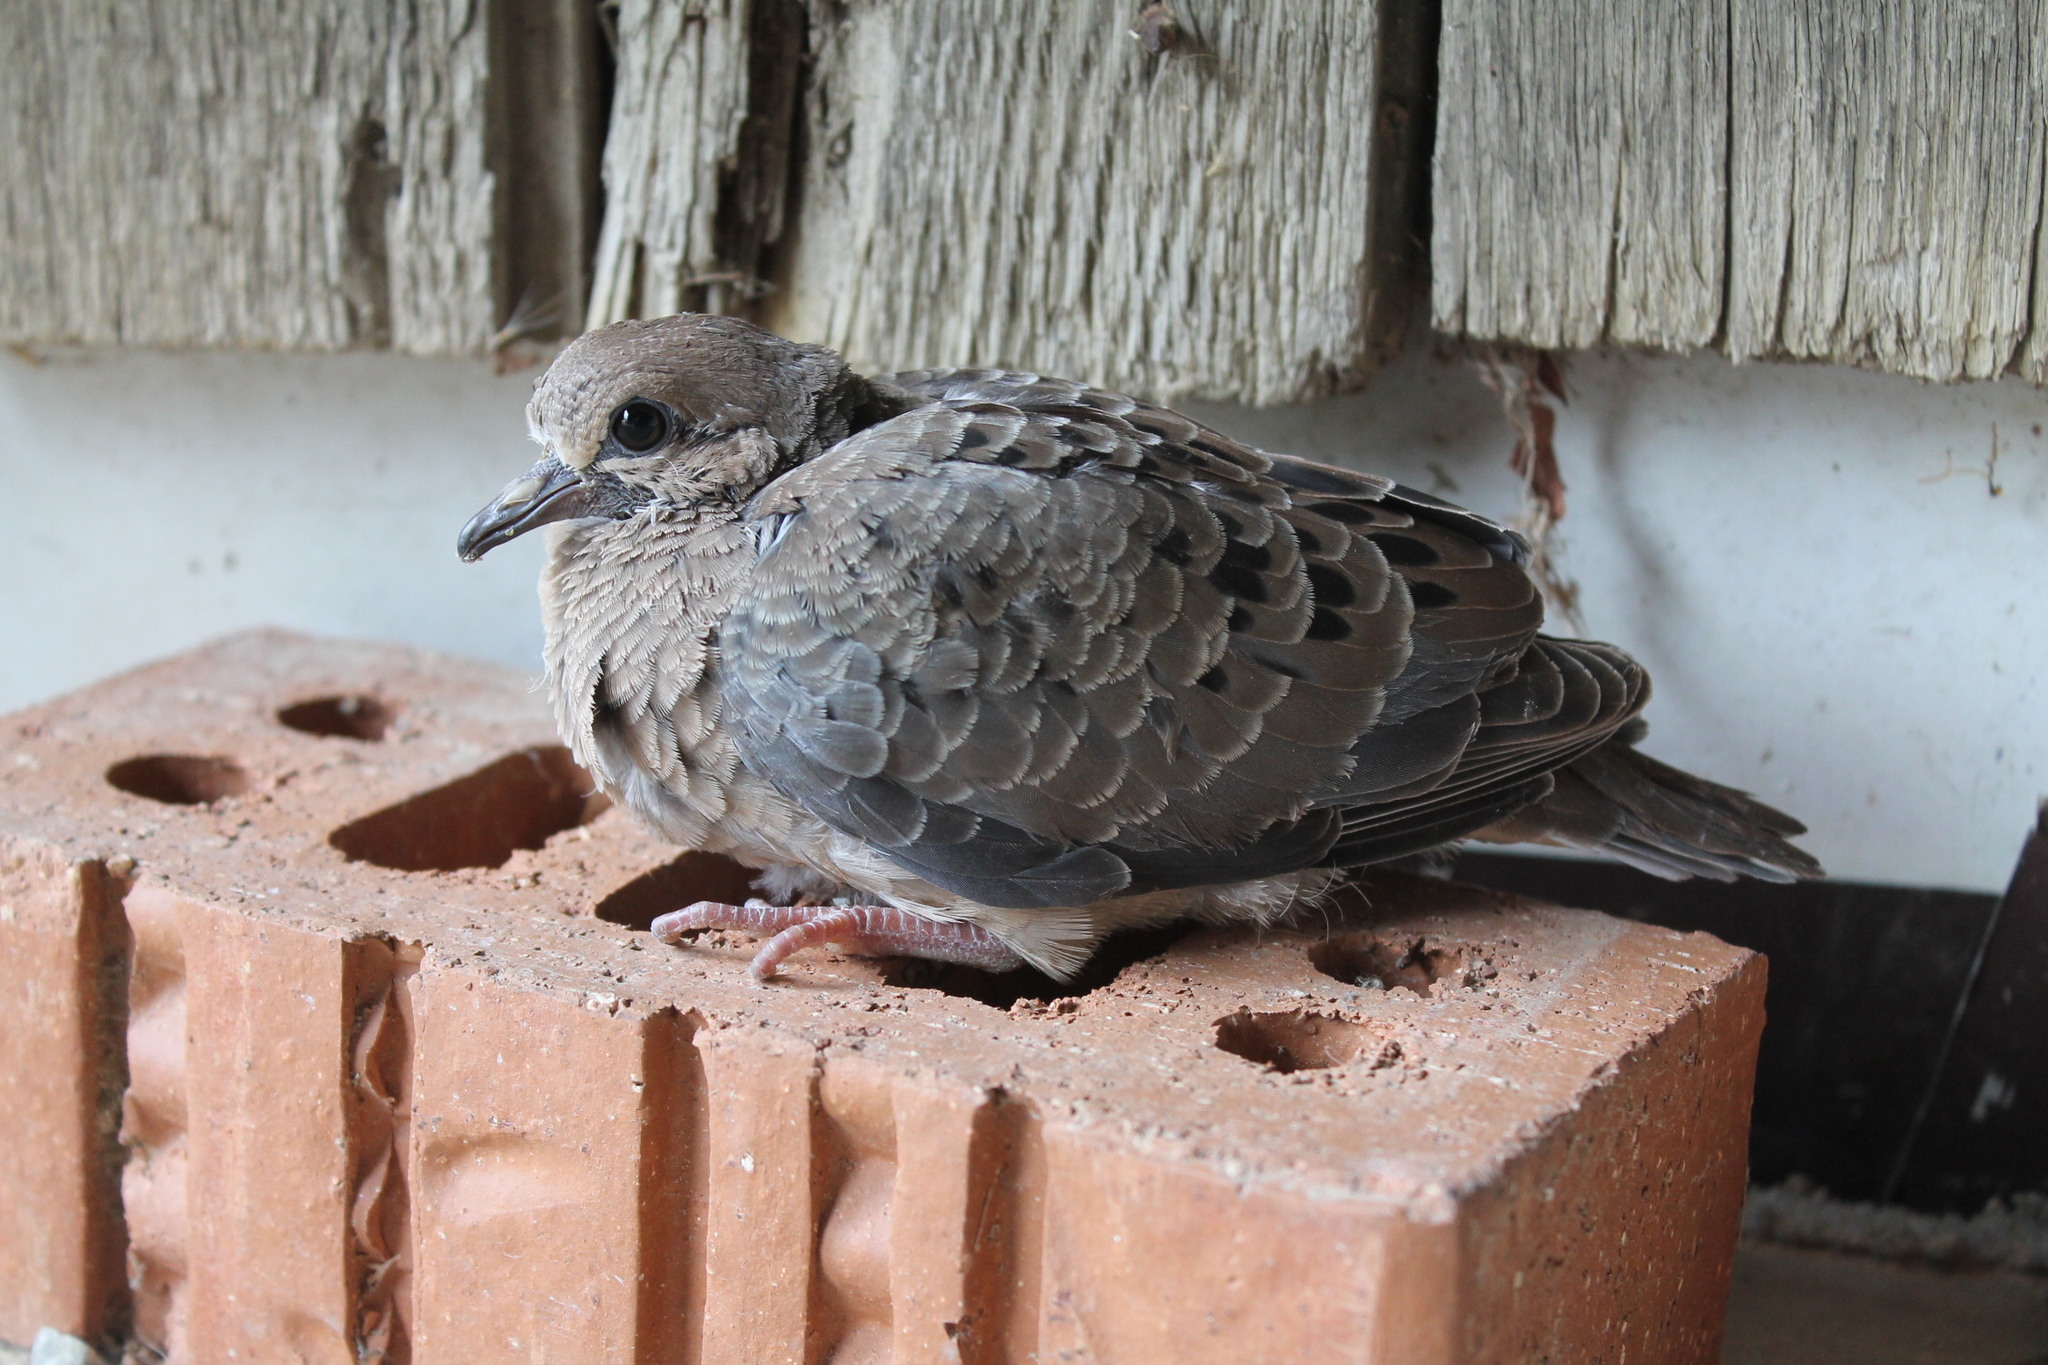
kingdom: Animalia
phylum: Chordata
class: Aves
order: Columbiformes
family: Columbidae
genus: Zenaida
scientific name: Zenaida macroura
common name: Mourning dove
